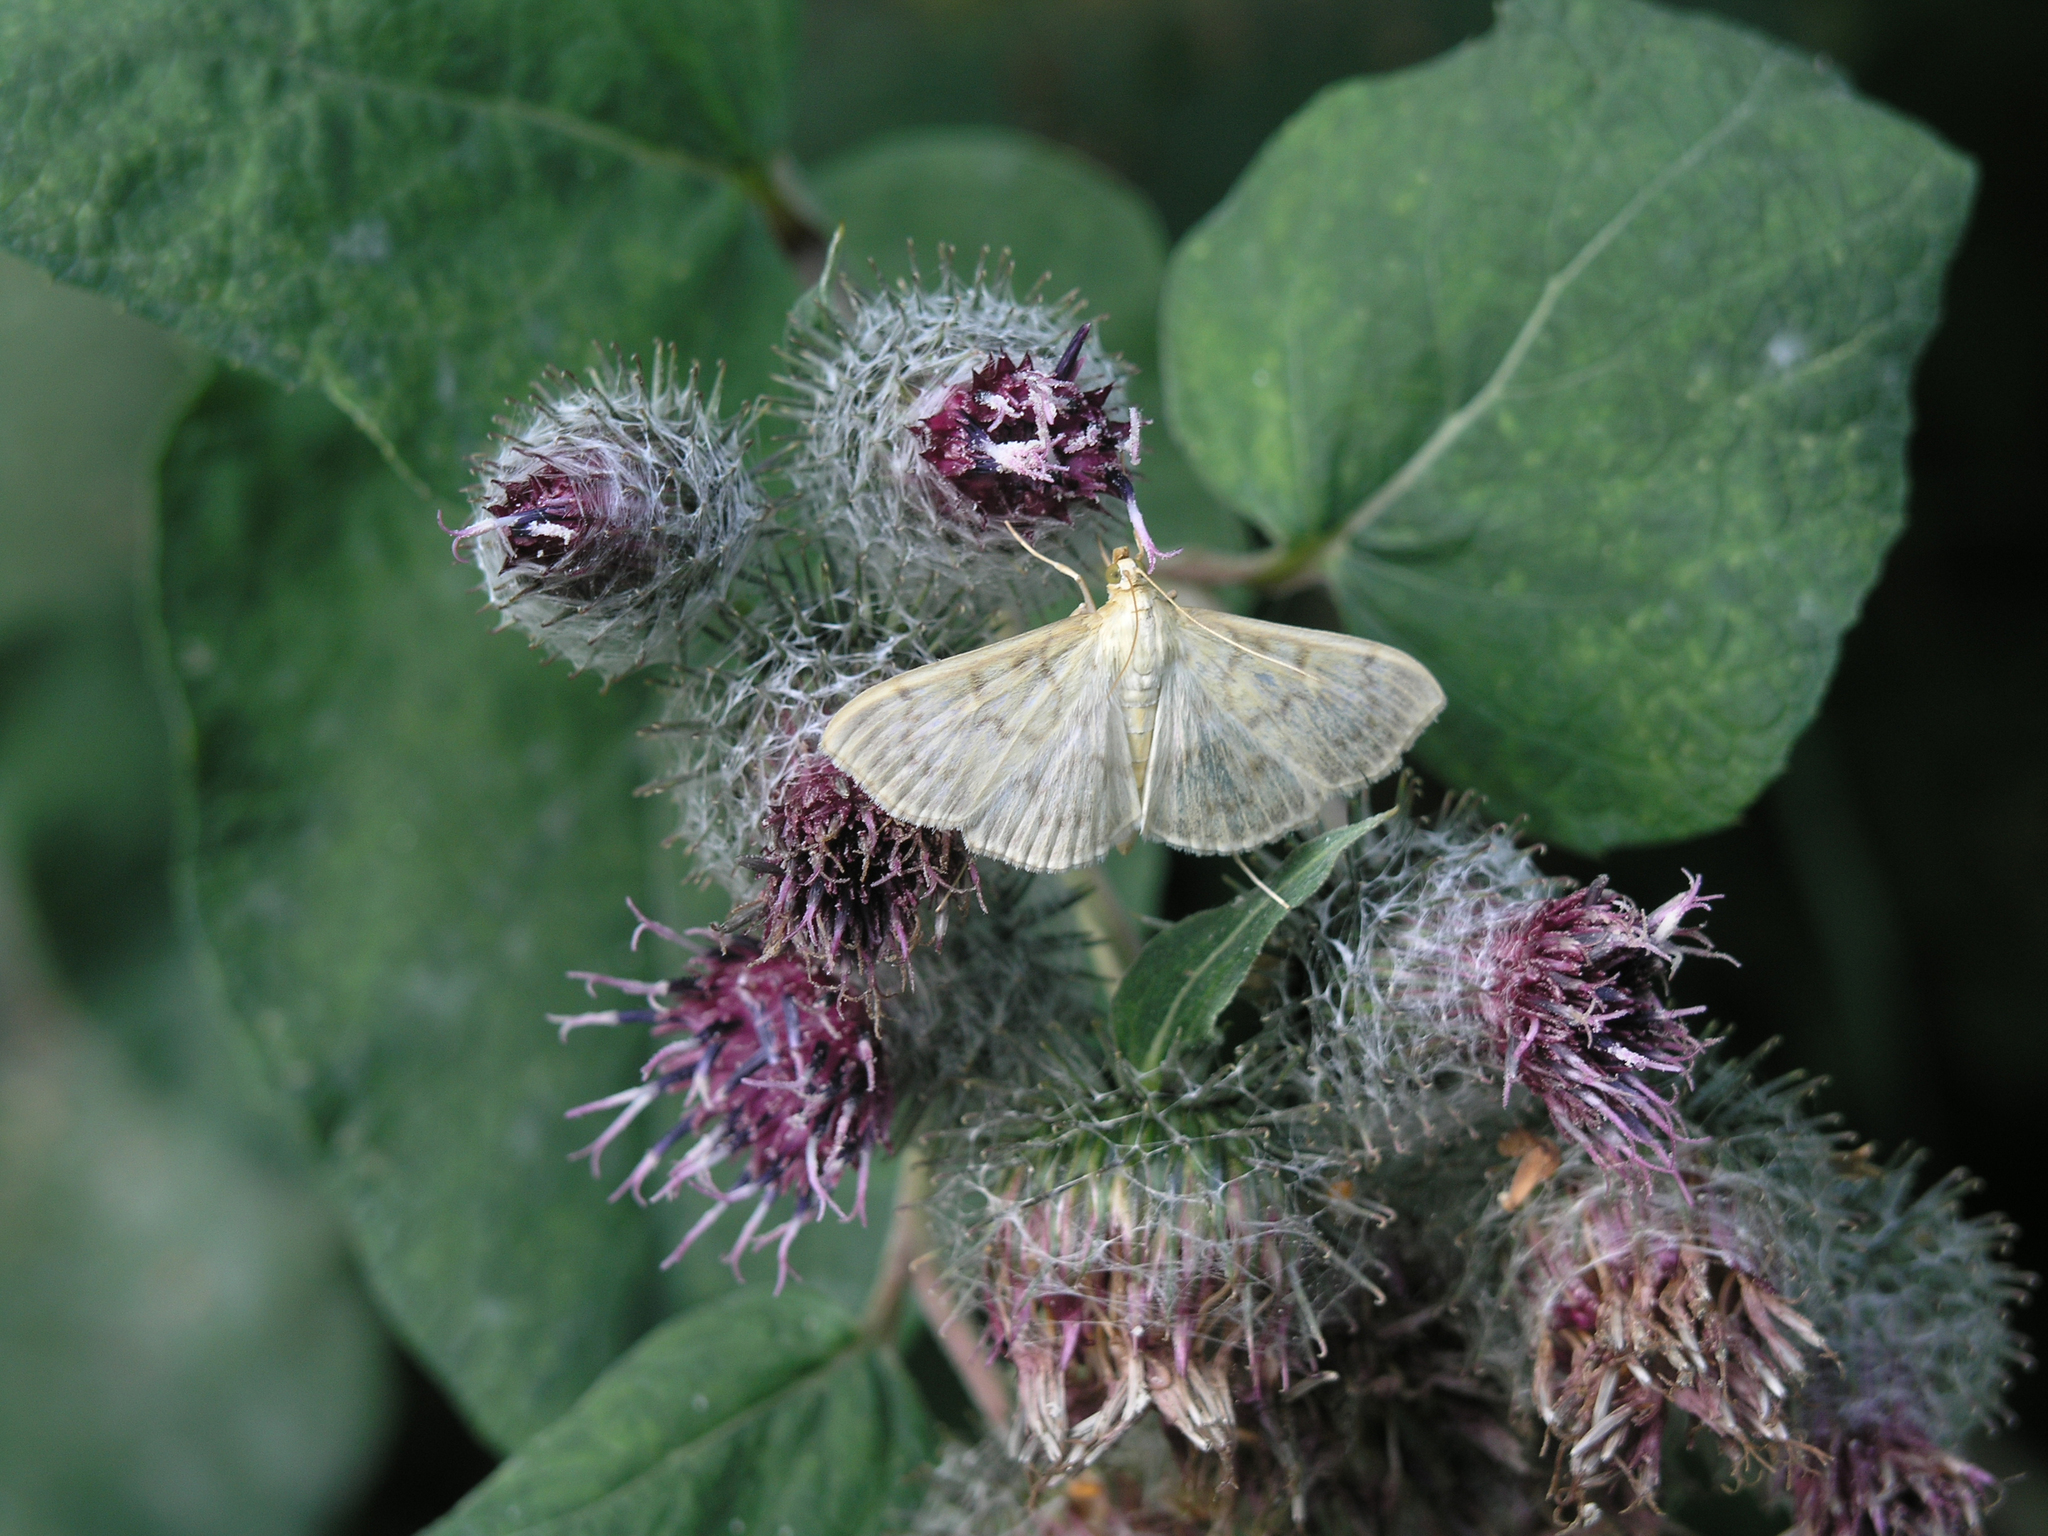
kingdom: Plantae
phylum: Tracheophyta
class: Magnoliopsida
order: Asterales
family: Asteraceae
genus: Arctium
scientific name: Arctium tomentosum
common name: Woolly burdock
